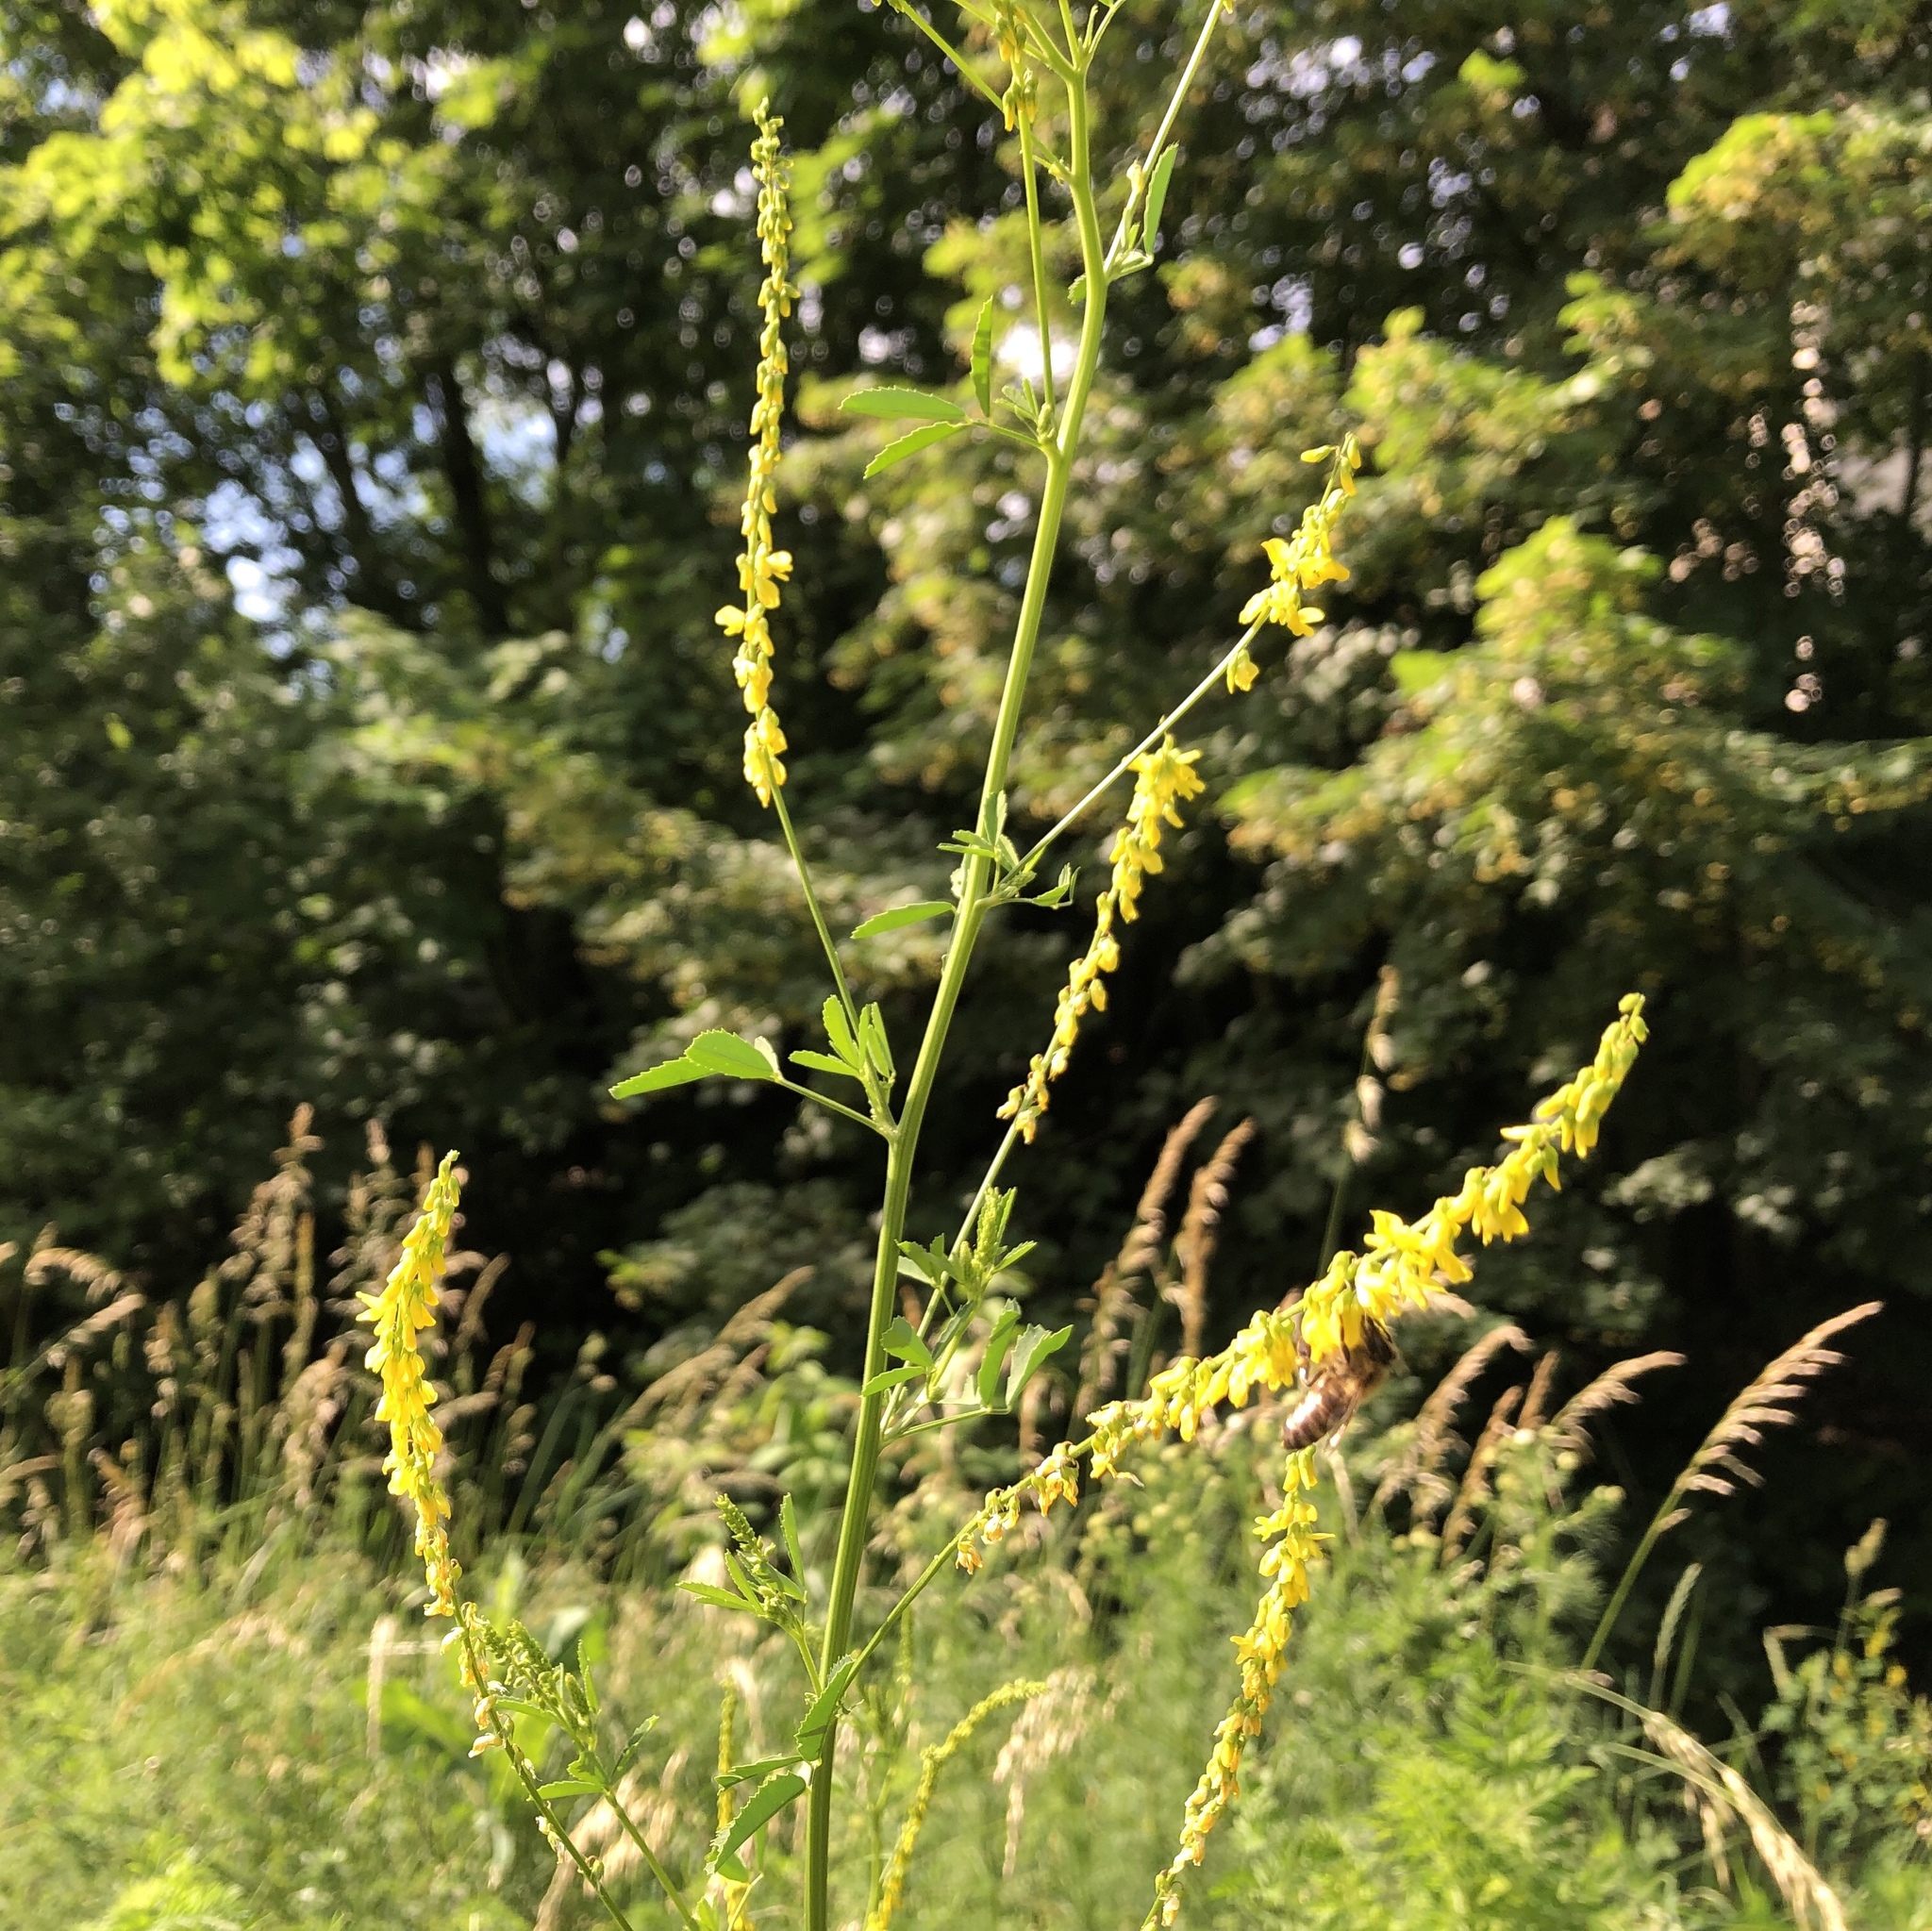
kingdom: Plantae
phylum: Tracheophyta
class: Magnoliopsida
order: Fabales
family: Fabaceae
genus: Melilotus
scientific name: Melilotus officinalis
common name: Sweetclover
